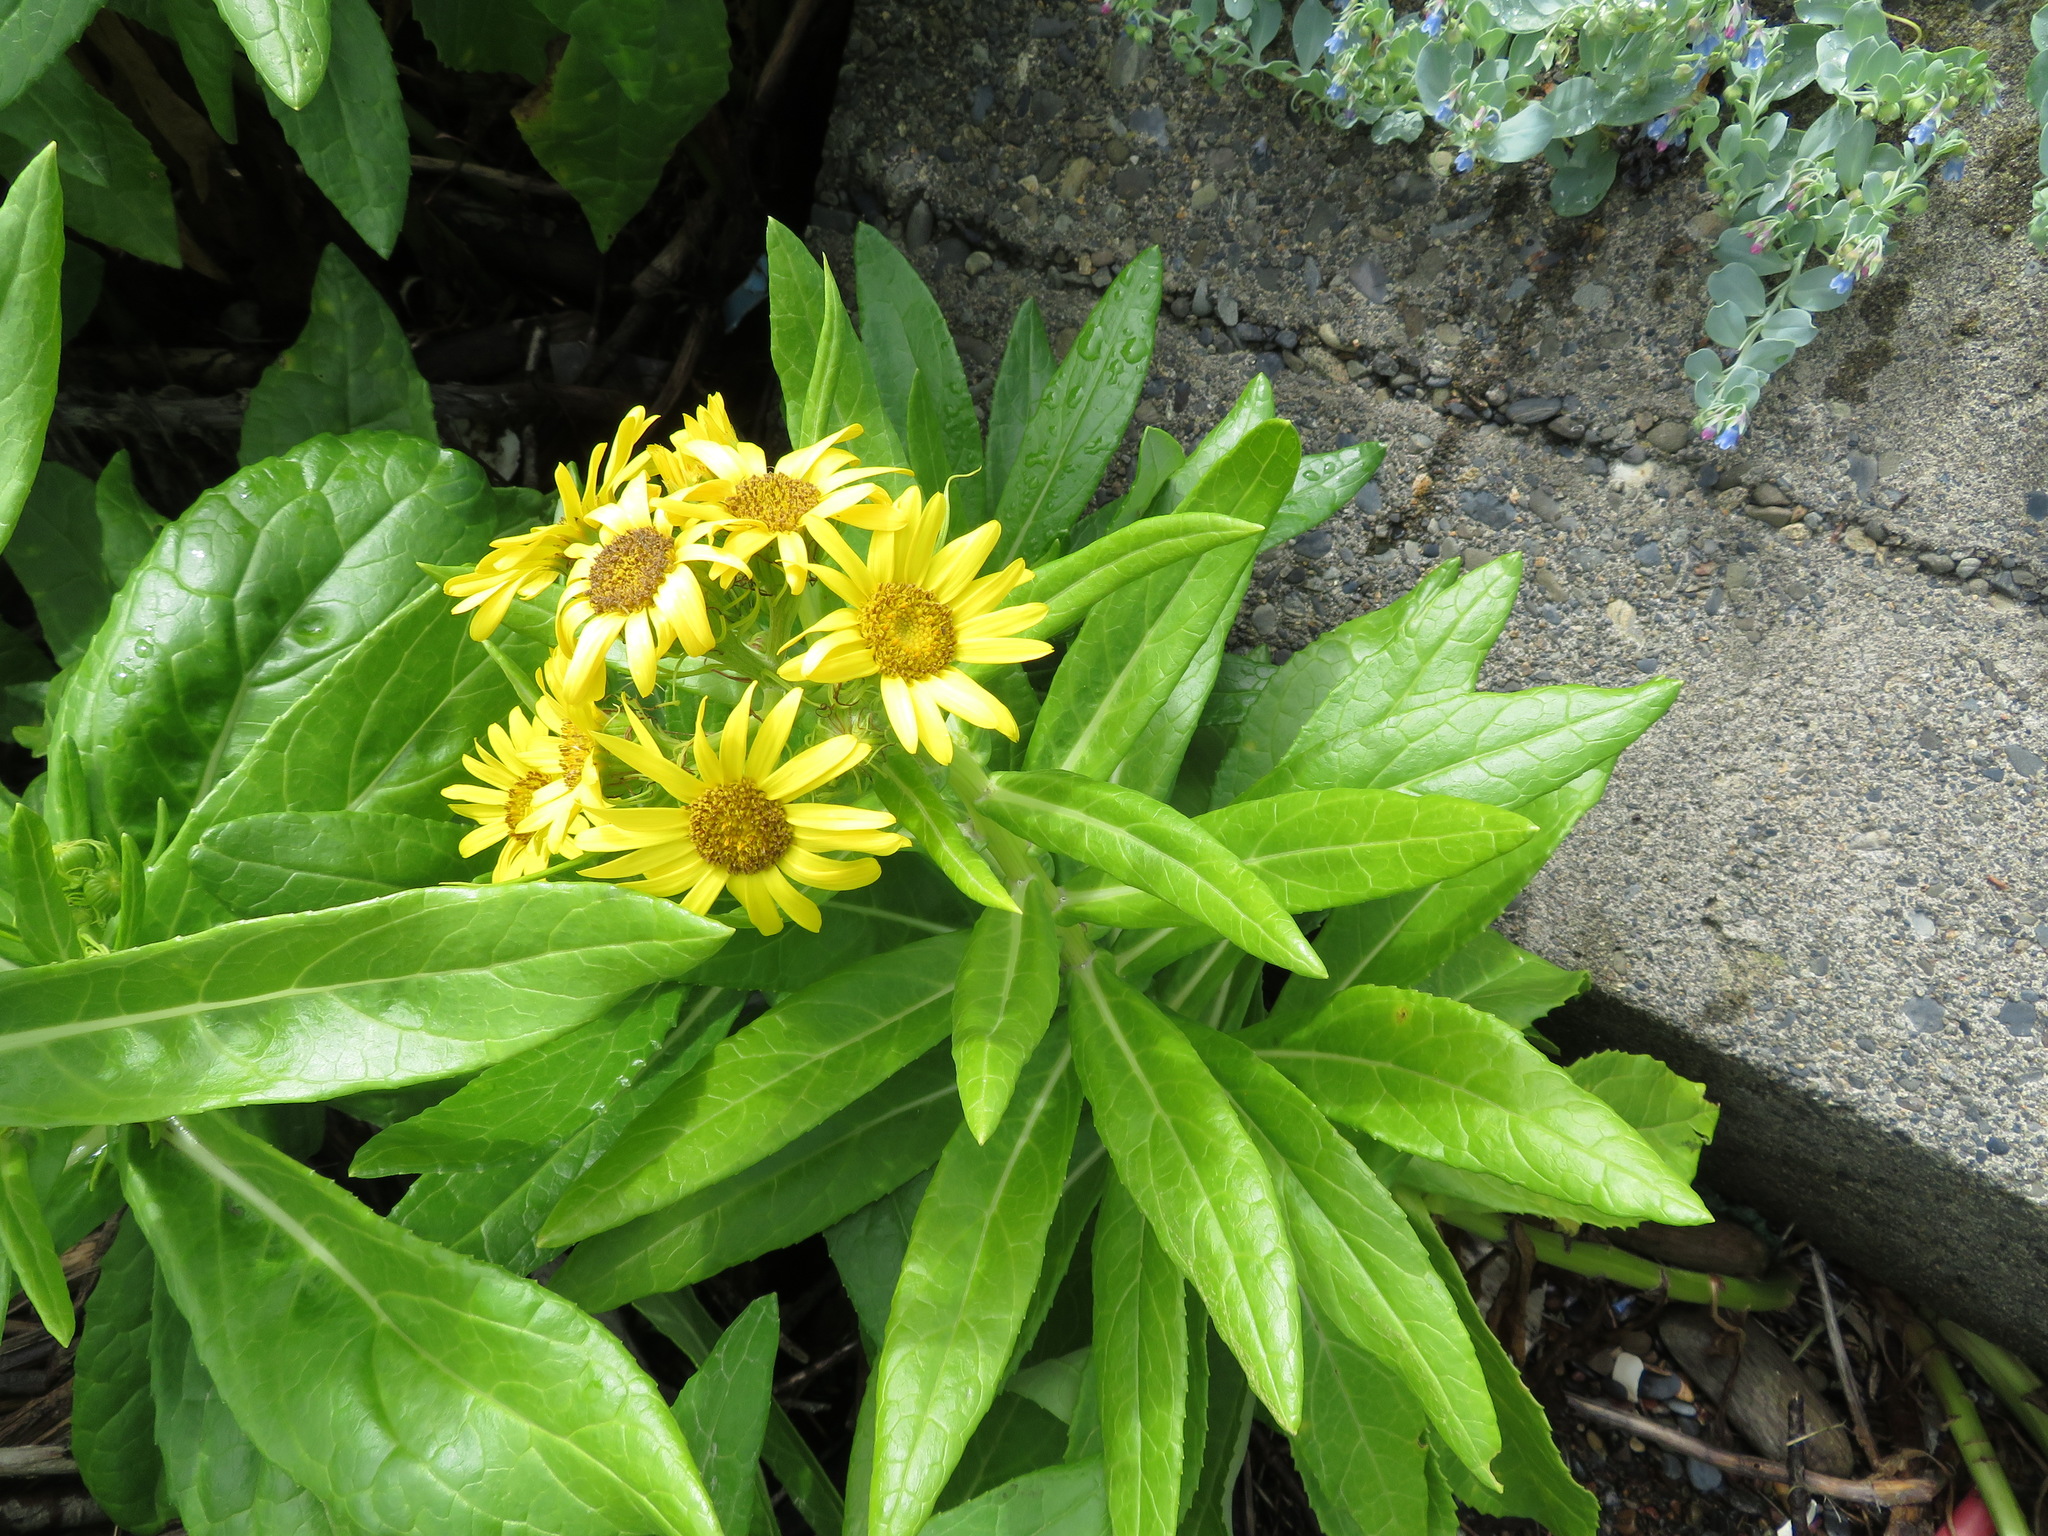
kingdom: Plantae
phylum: Tracheophyta
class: Magnoliopsida
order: Asterales
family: Asteraceae
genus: Jacobaea
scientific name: Jacobaea pseudoarnica
